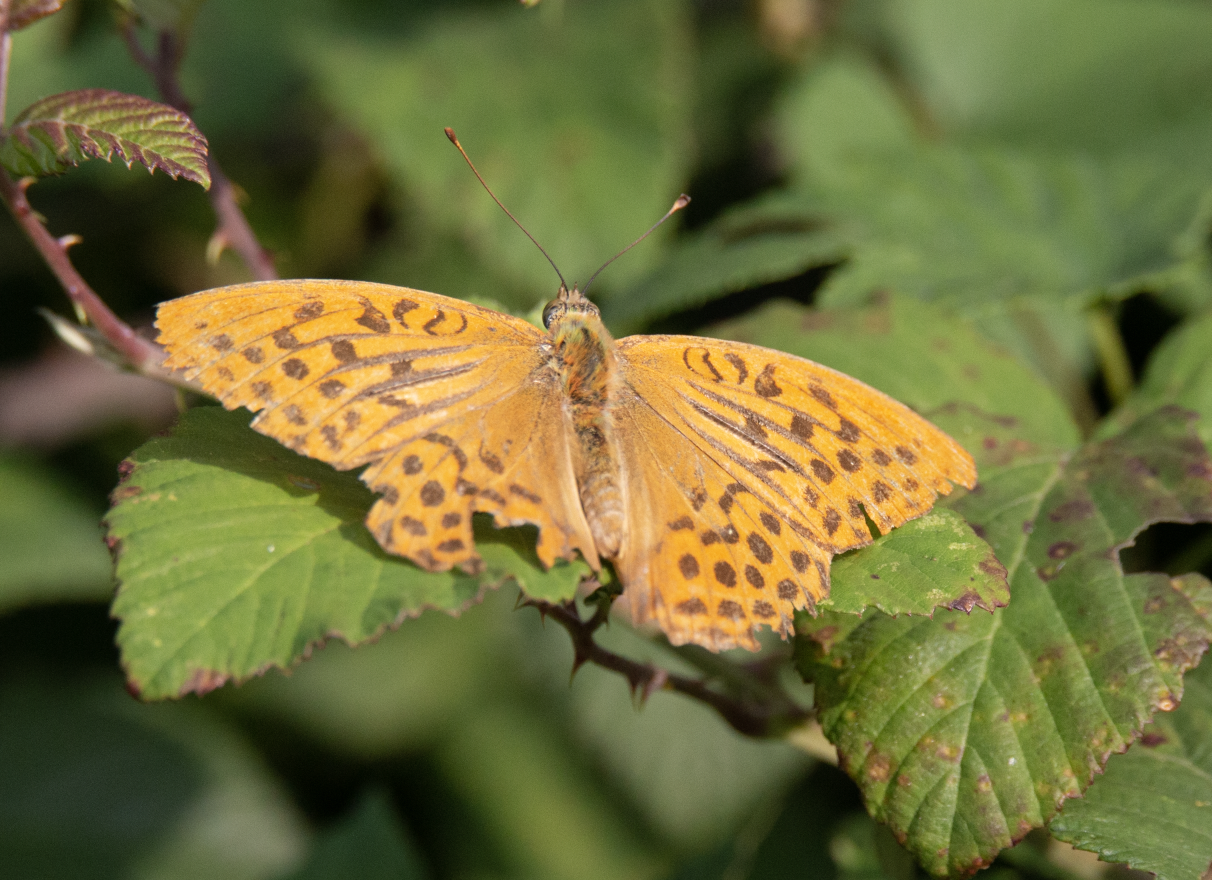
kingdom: Animalia
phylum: Arthropoda
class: Insecta
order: Lepidoptera
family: Nymphalidae
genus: Argynnis
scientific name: Argynnis paphia
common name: Silver-washed fritillary
